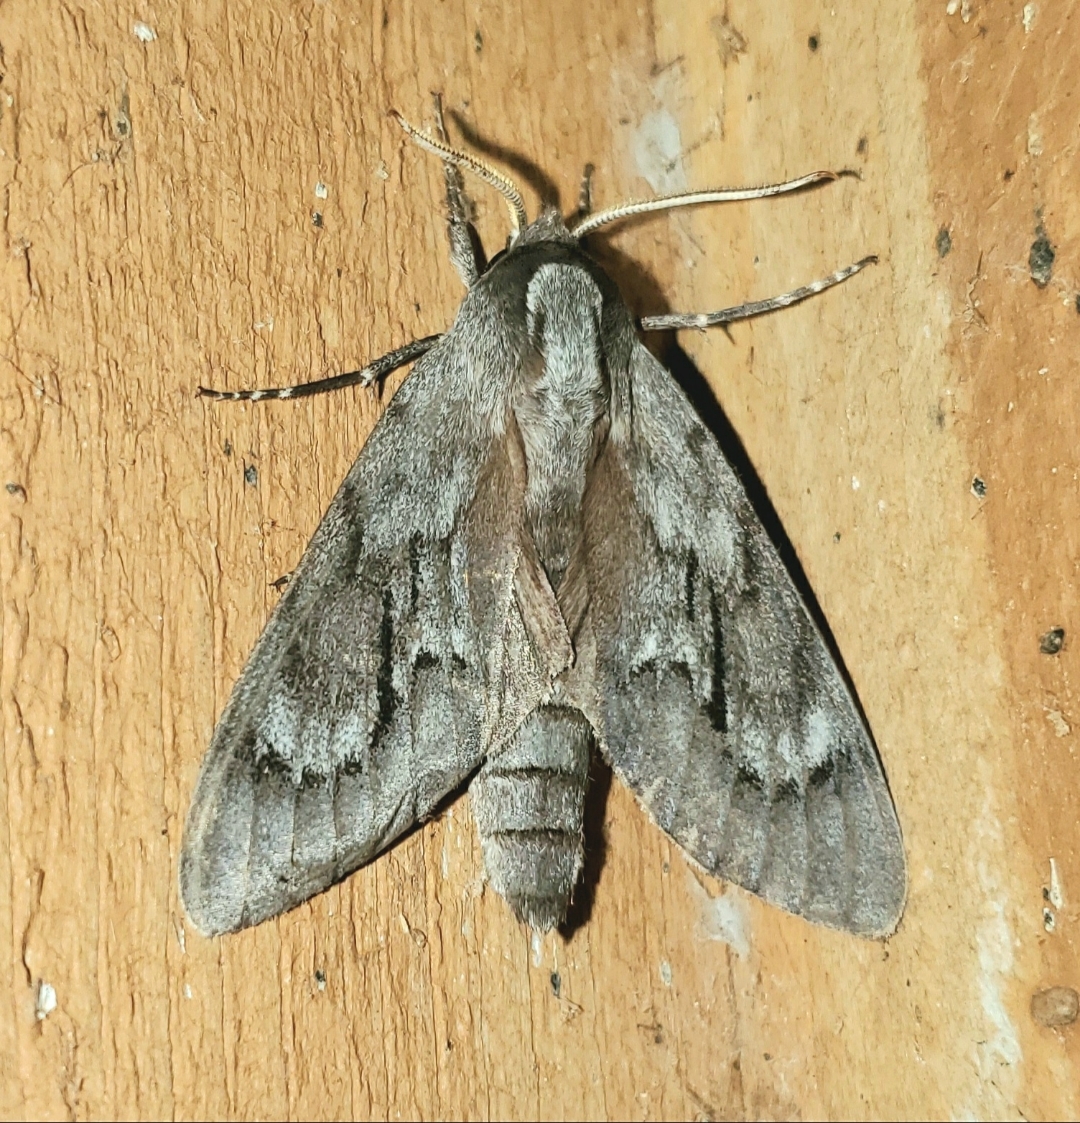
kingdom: Animalia
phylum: Arthropoda
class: Insecta
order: Lepidoptera
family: Sphingidae
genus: Lapara
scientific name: Lapara coniferarum
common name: Southern pine sphinx
